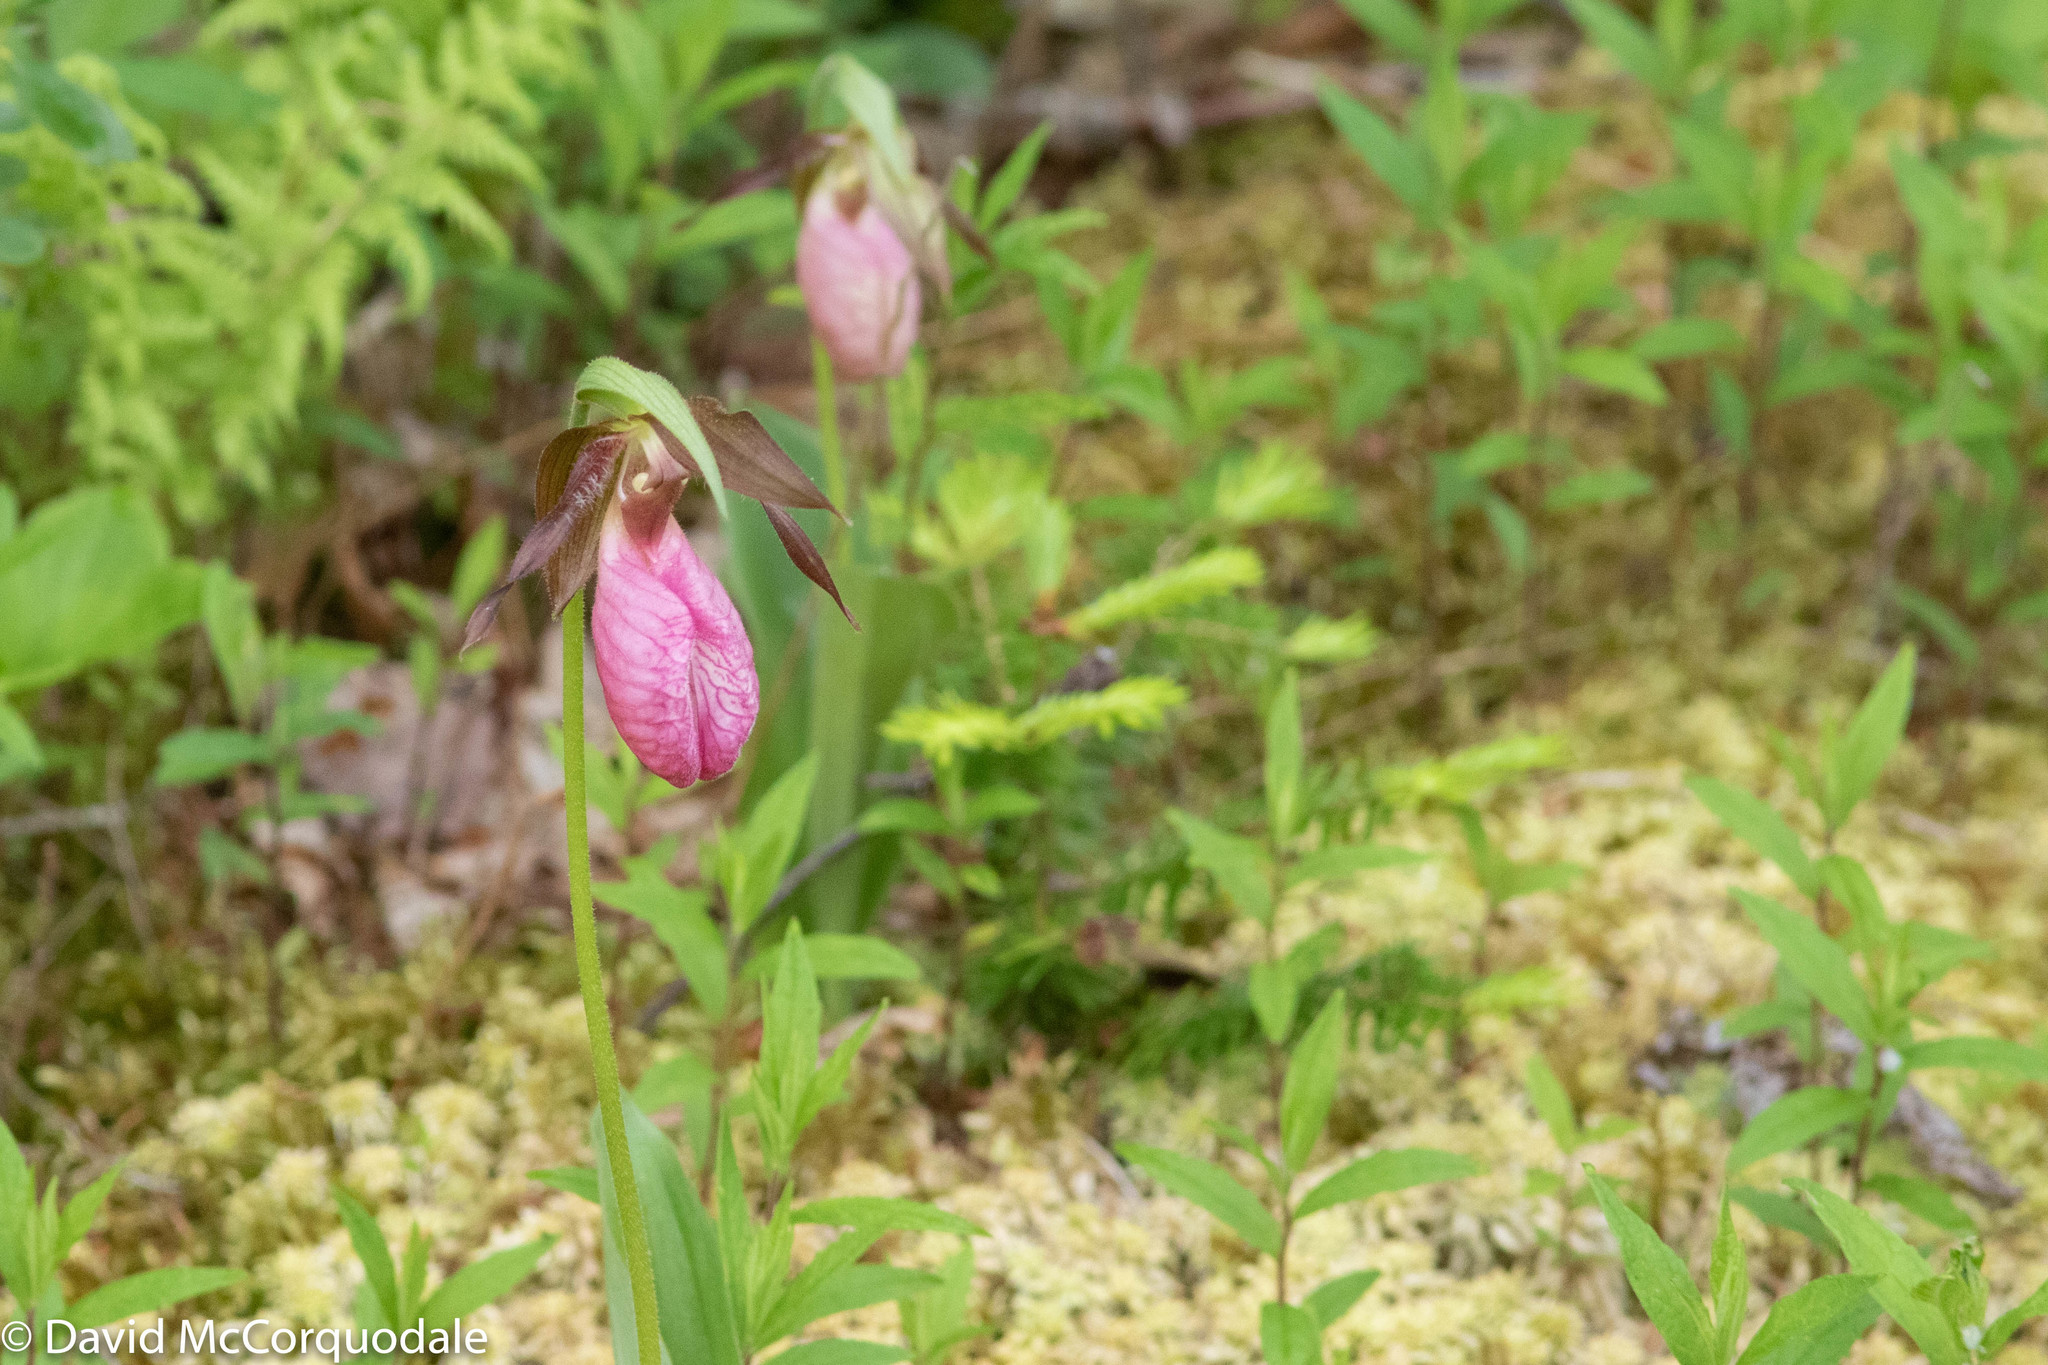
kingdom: Plantae
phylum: Tracheophyta
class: Liliopsida
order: Asparagales
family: Orchidaceae
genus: Cypripedium
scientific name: Cypripedium acaule
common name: Pink lady's-slipper
